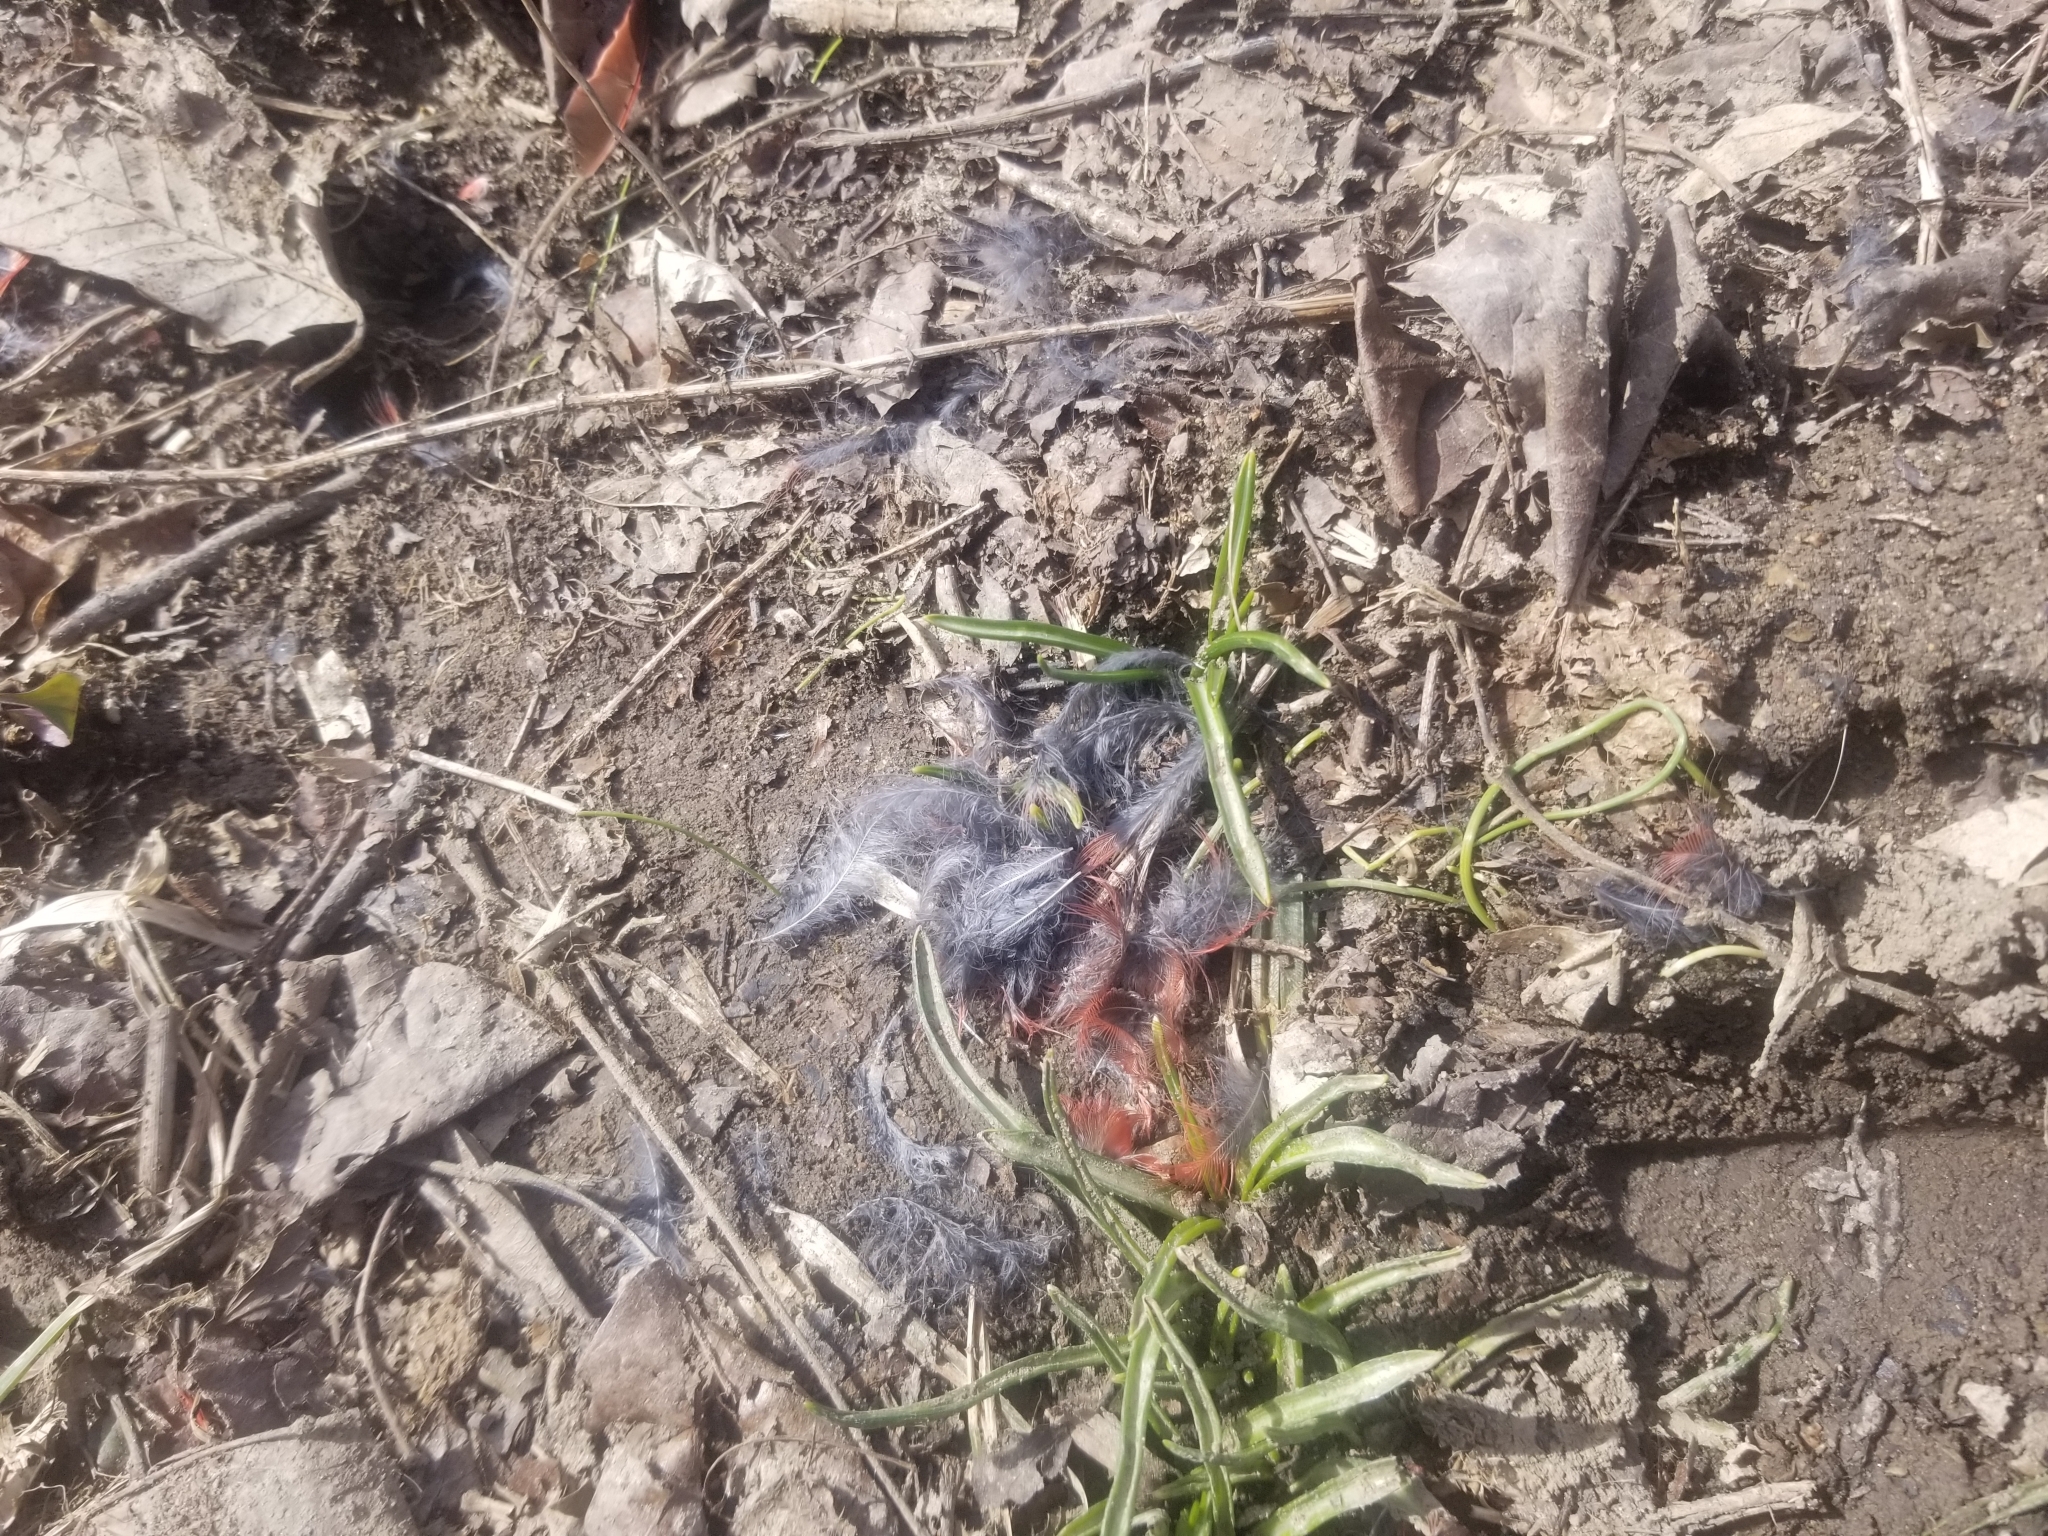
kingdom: Animalia
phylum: Chordata
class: Aves
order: Passeriformes
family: Cardinalidae
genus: Cardinalis
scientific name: Cardinalis cardinalis
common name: Northern cardinal
